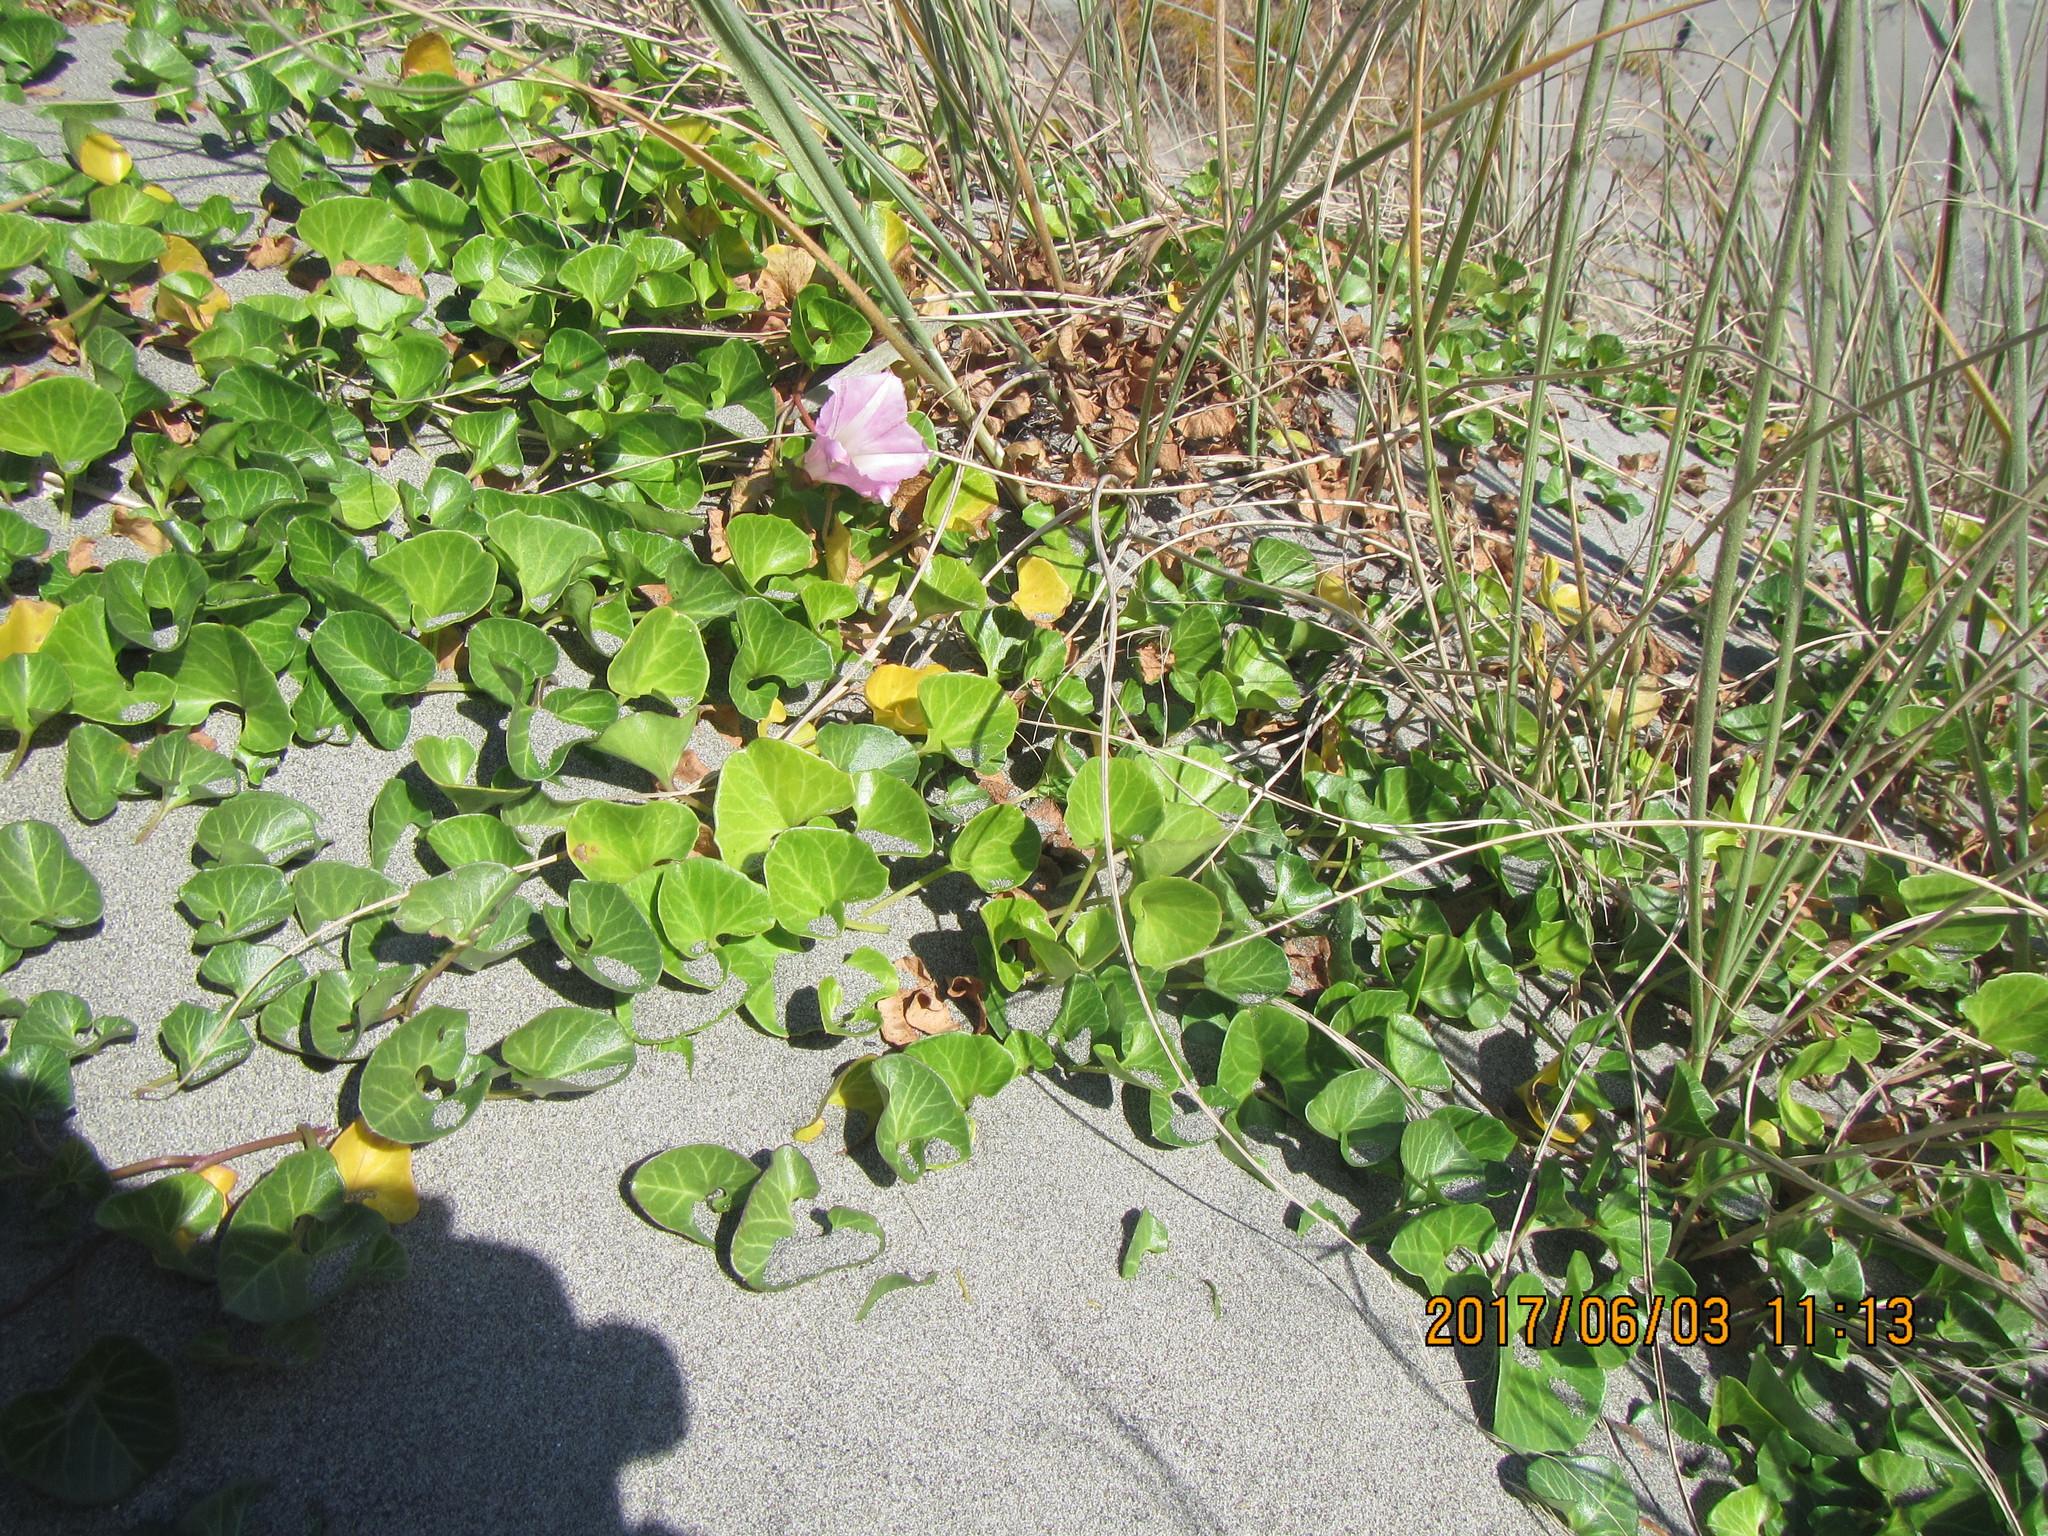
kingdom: Plantae
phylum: Tracheophyta
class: Magnoliopsida
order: Solanales
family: Convolvulaceae
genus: Calystegia
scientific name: Calystegia soldanella
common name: Sea bindweed
